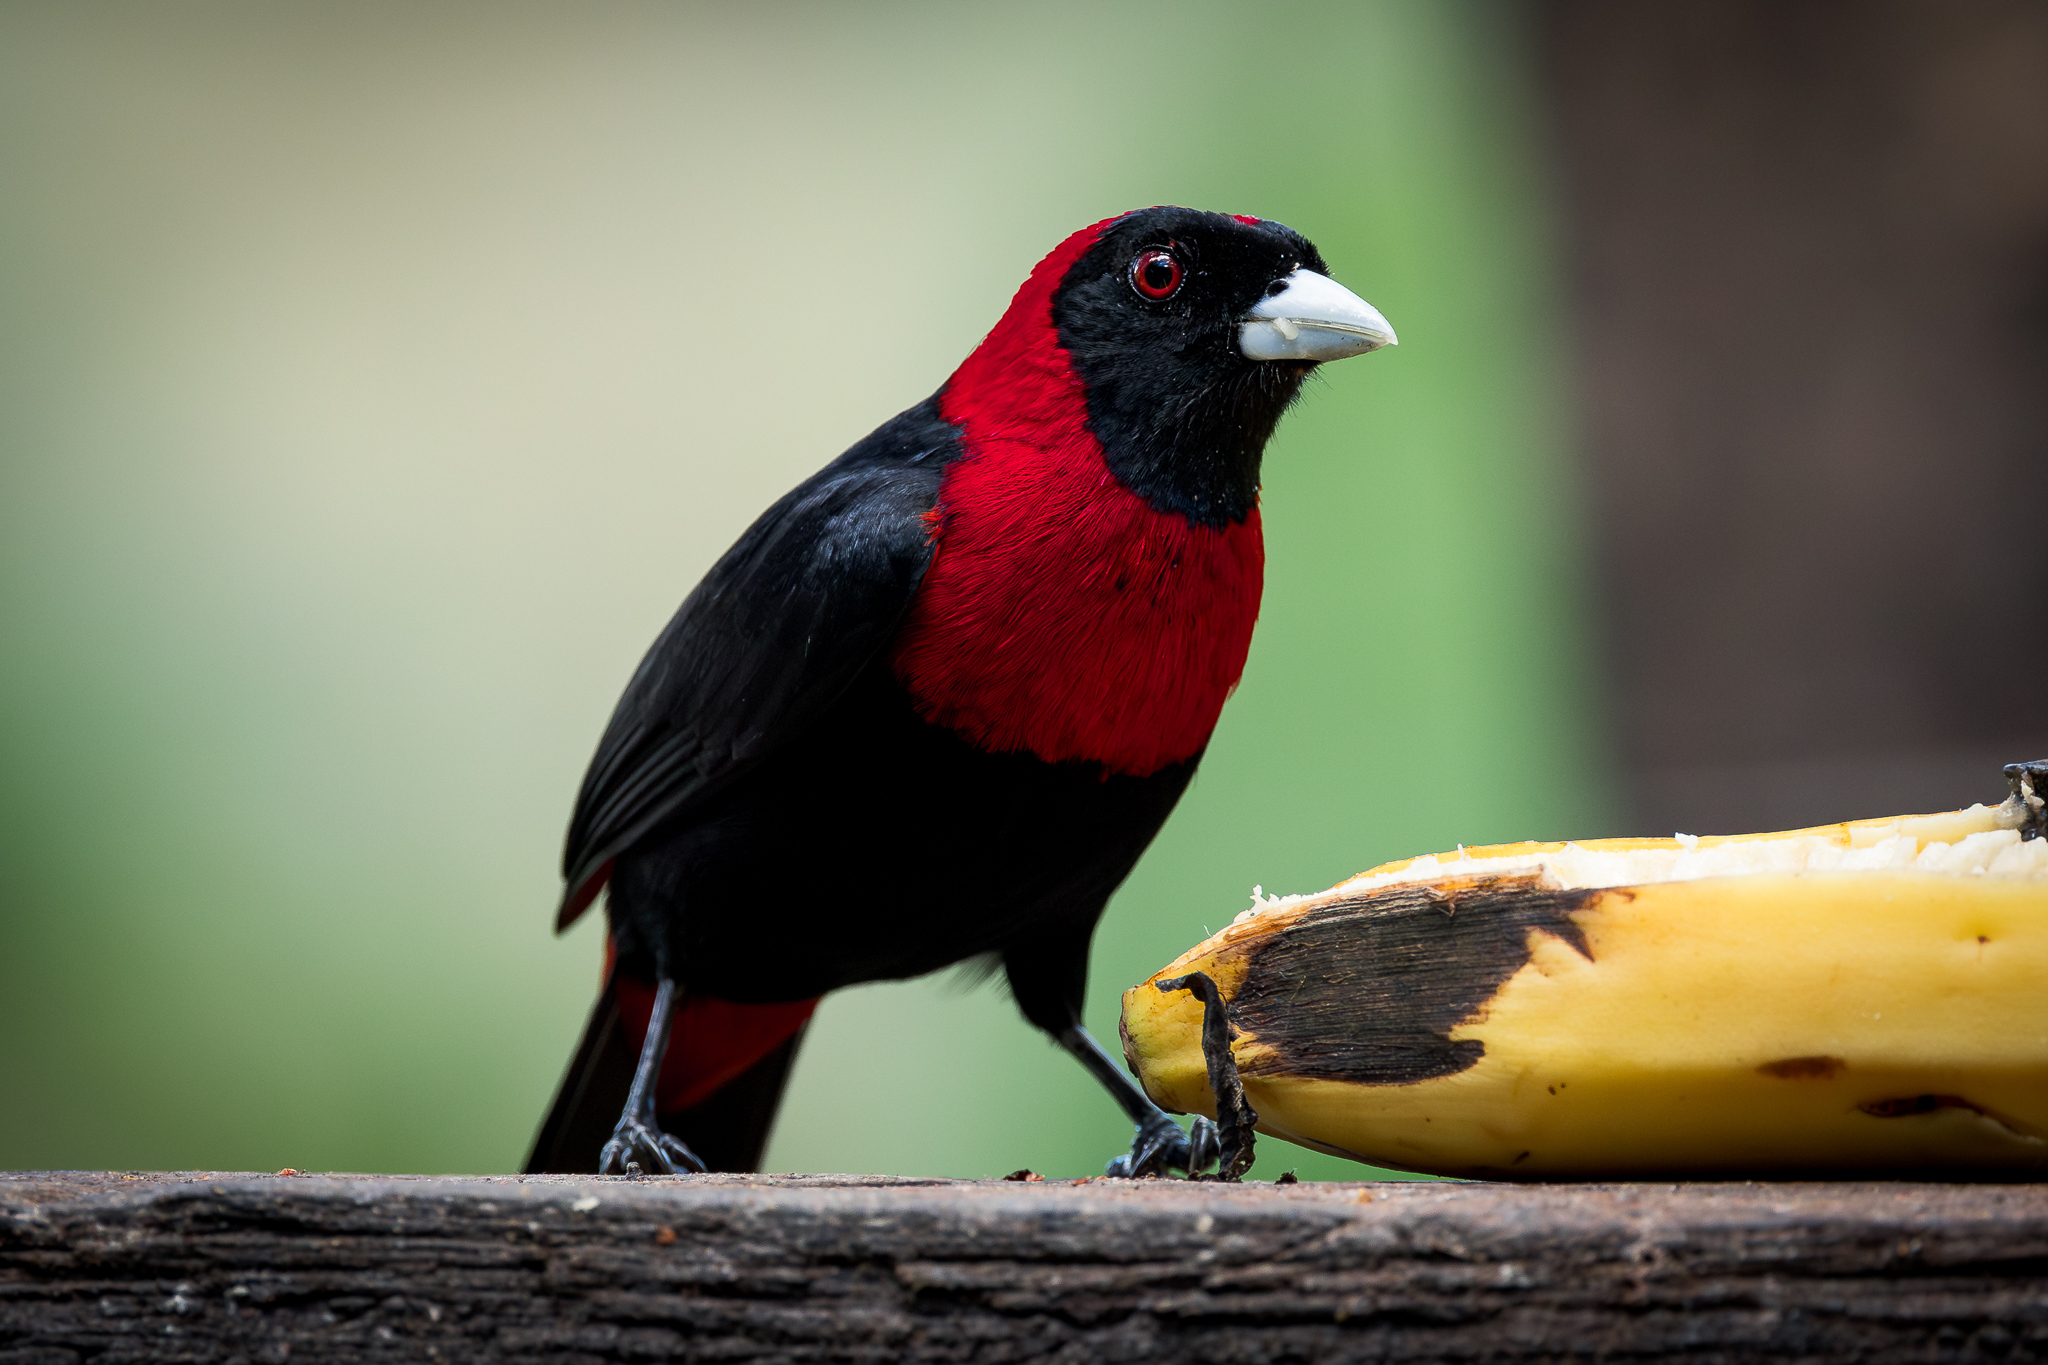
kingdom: Animalia
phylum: Chordata
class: Aves
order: Passeriformes
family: Thraupidae
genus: Ramphocelus
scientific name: Ramphocelus sanguinolentus
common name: Crimson-collared tanager
